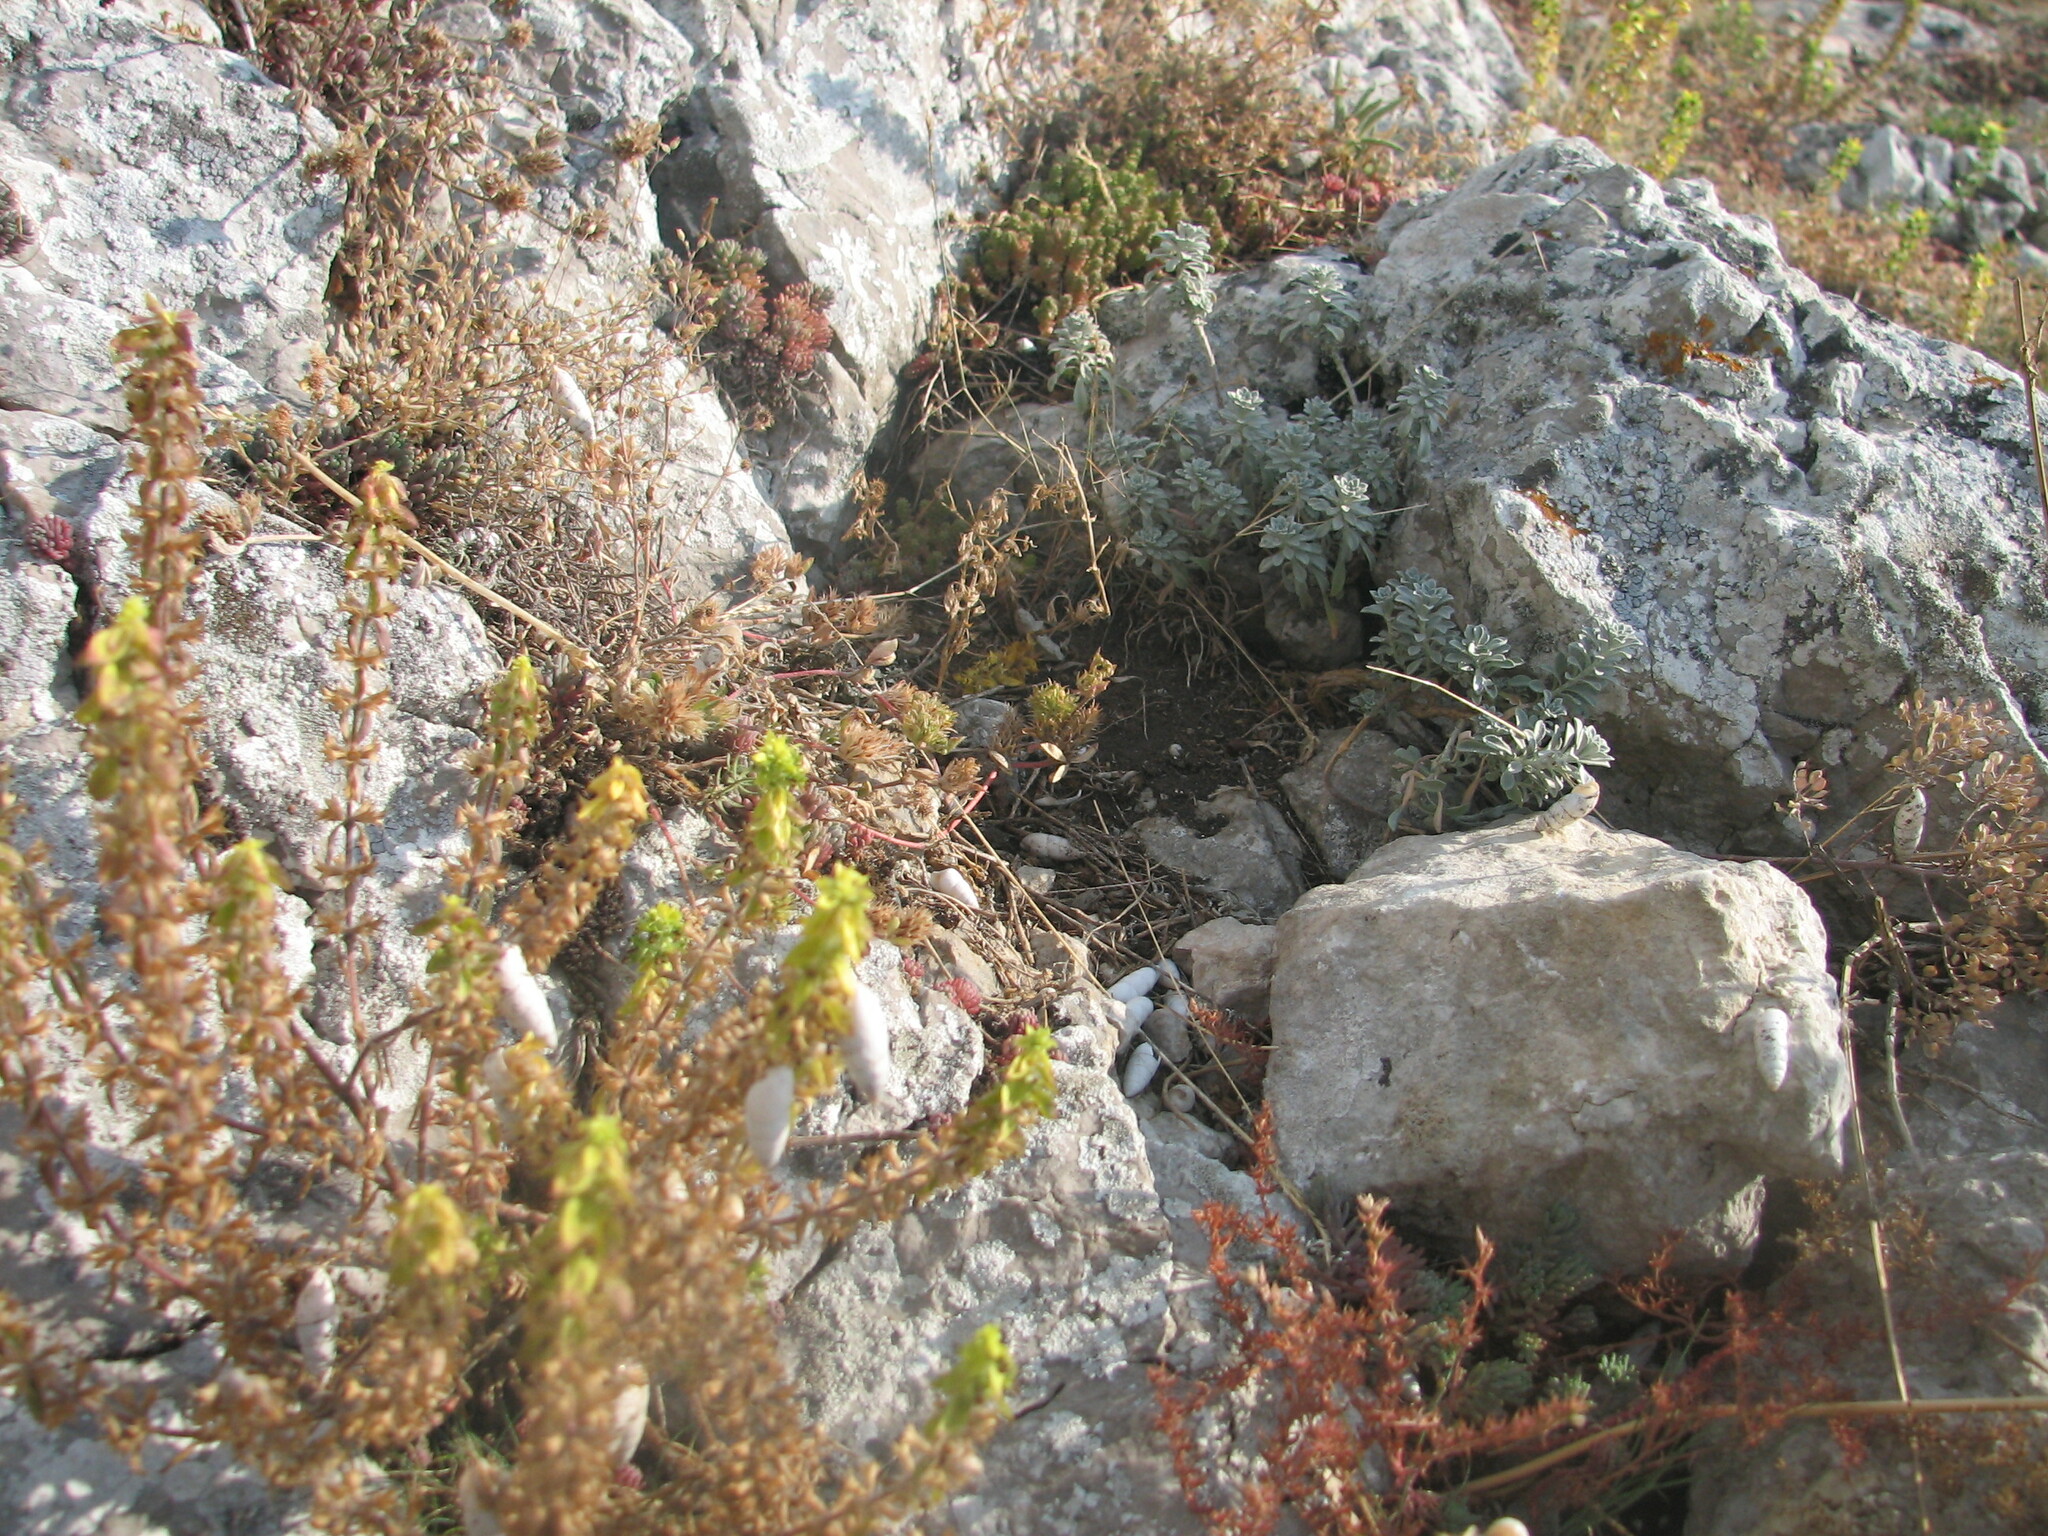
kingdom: Plantae
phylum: Tracheophyta
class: Magnoliopsida
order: Lamiales
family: Lamiaceae
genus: Sideritis
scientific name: Sideritis montana
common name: Mountain ironwort
